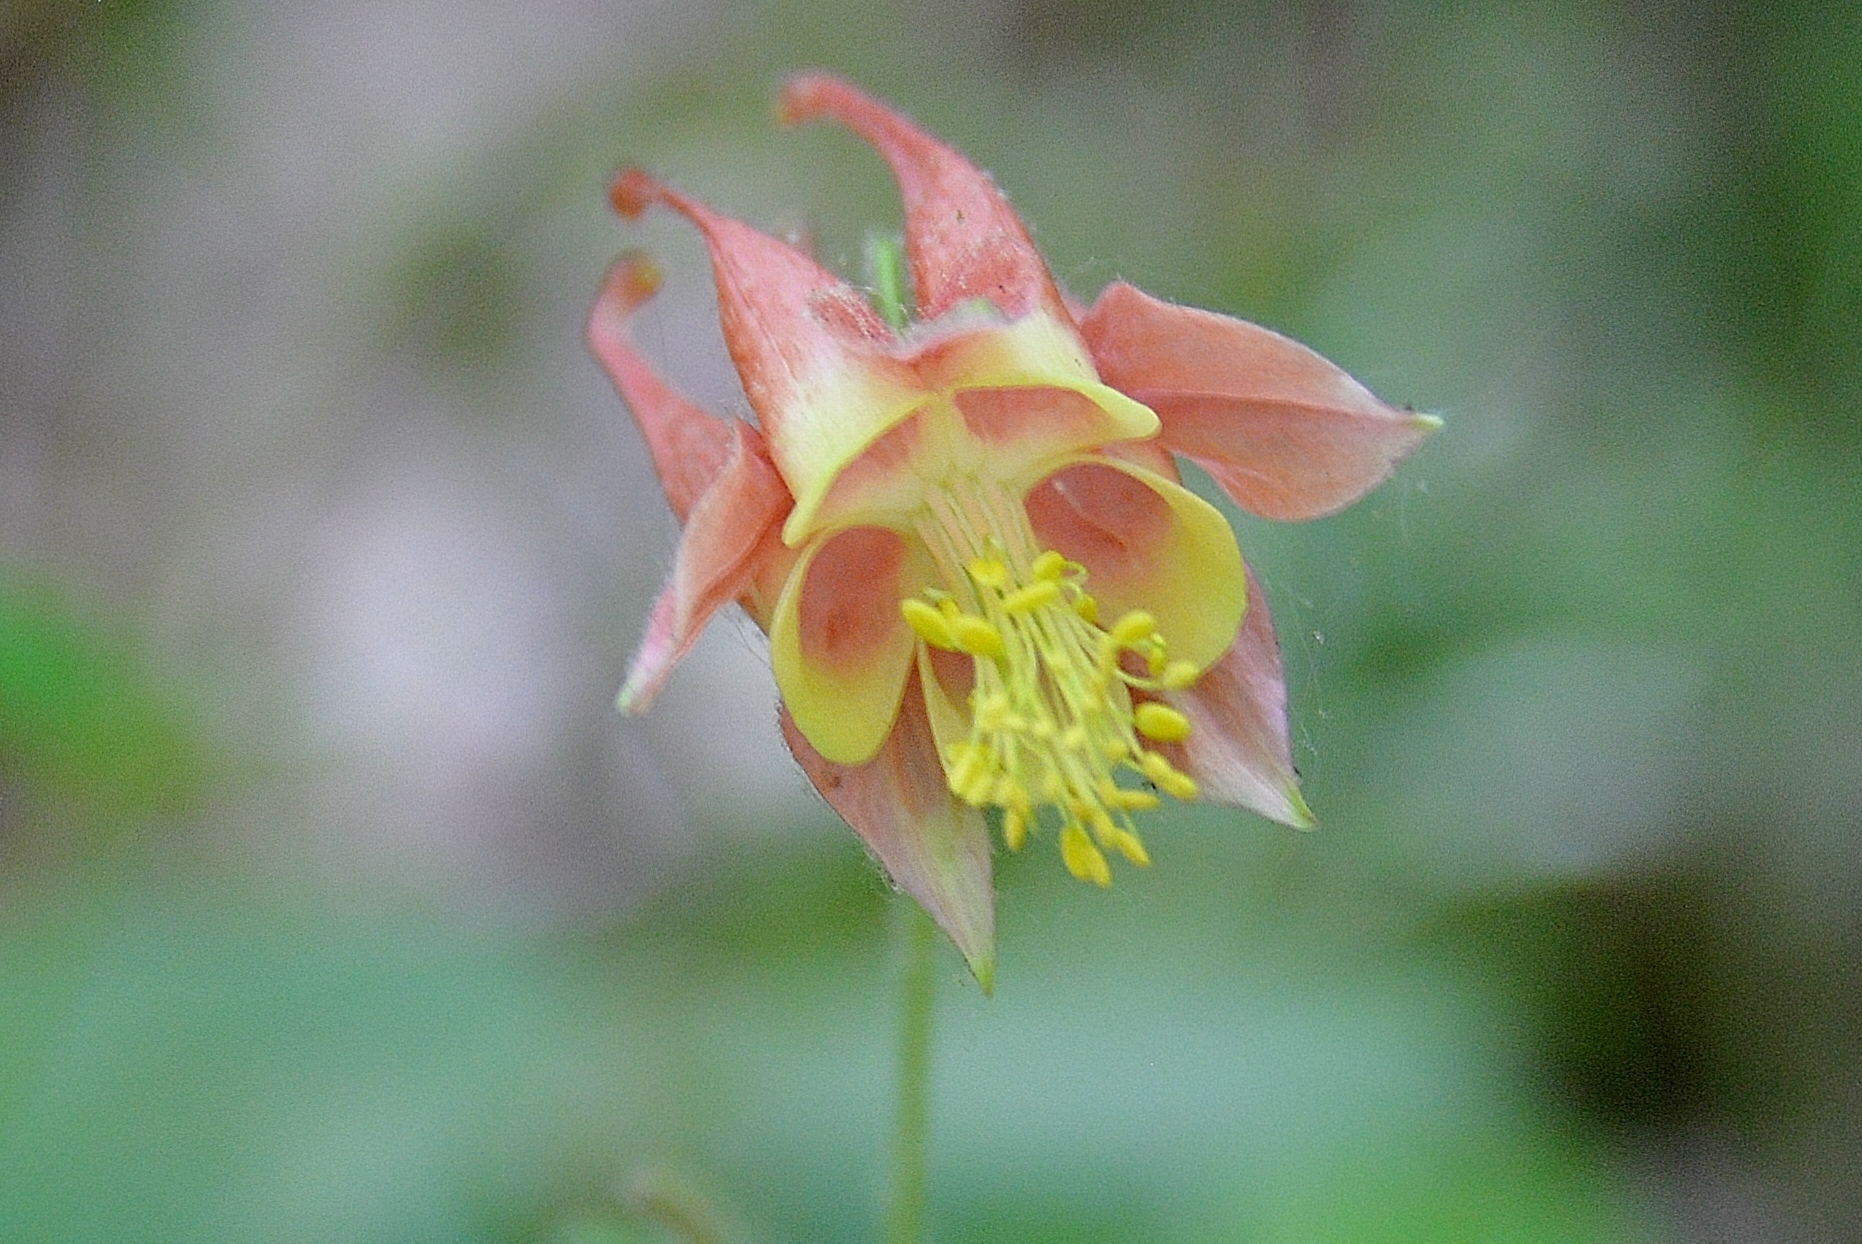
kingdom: Plantae
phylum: Tracheophyta
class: Magnoliopsida
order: Ranunculales
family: Ranunculaceae
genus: Aquilegia
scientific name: Aquilegia canadensis
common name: American columbine
